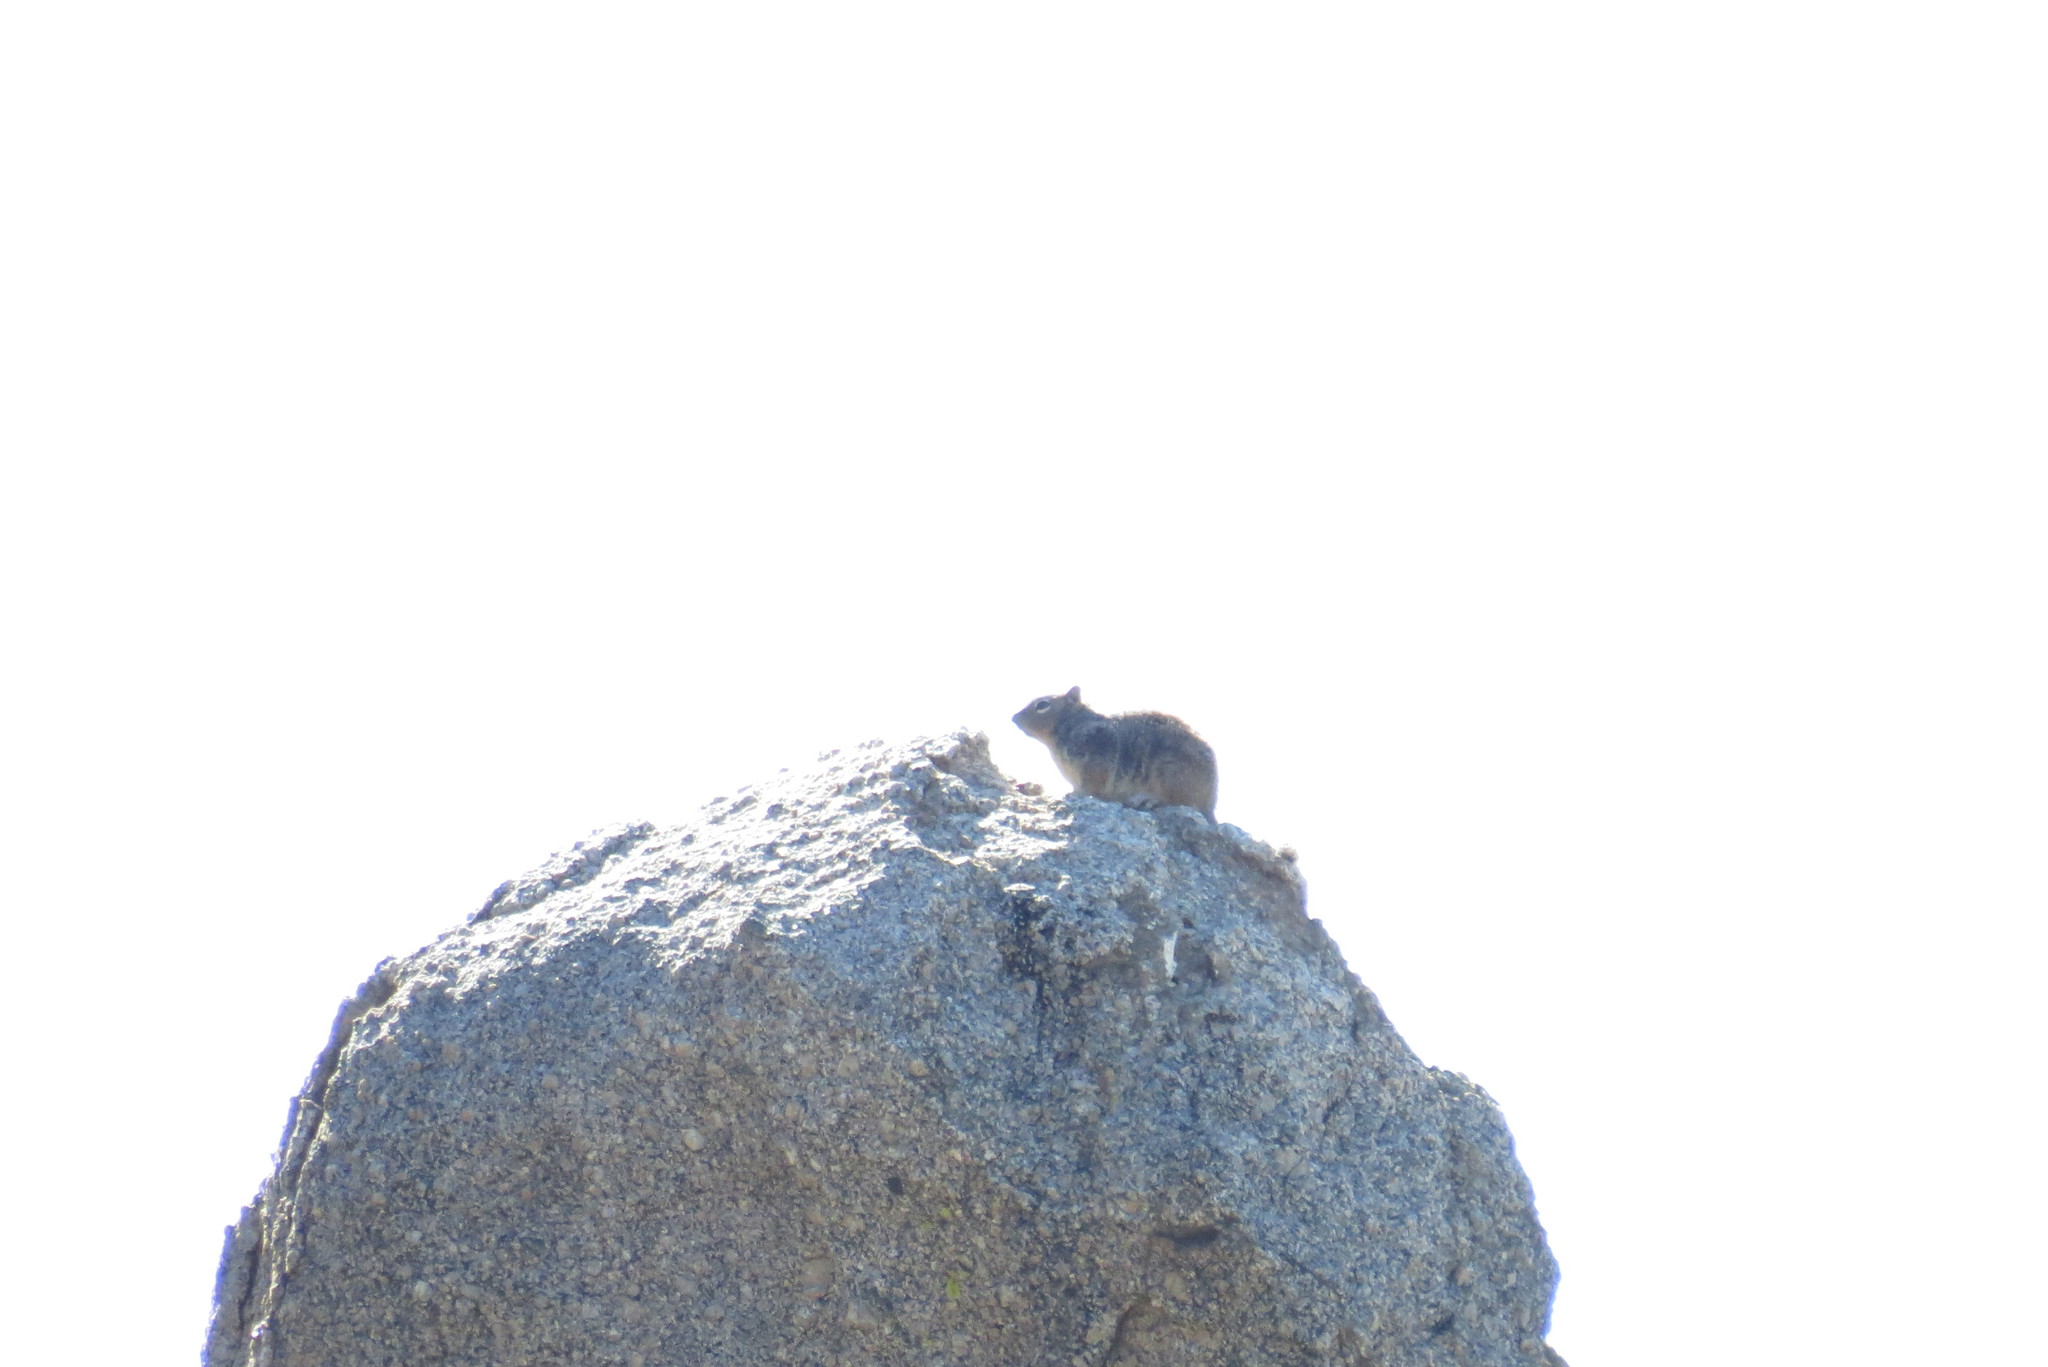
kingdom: Animalia
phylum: Chordata
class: Mammalia
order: Rodentia
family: Sciuridae
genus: Otospermophilus
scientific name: Otospermophilus variegatus
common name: Rock squirrel
